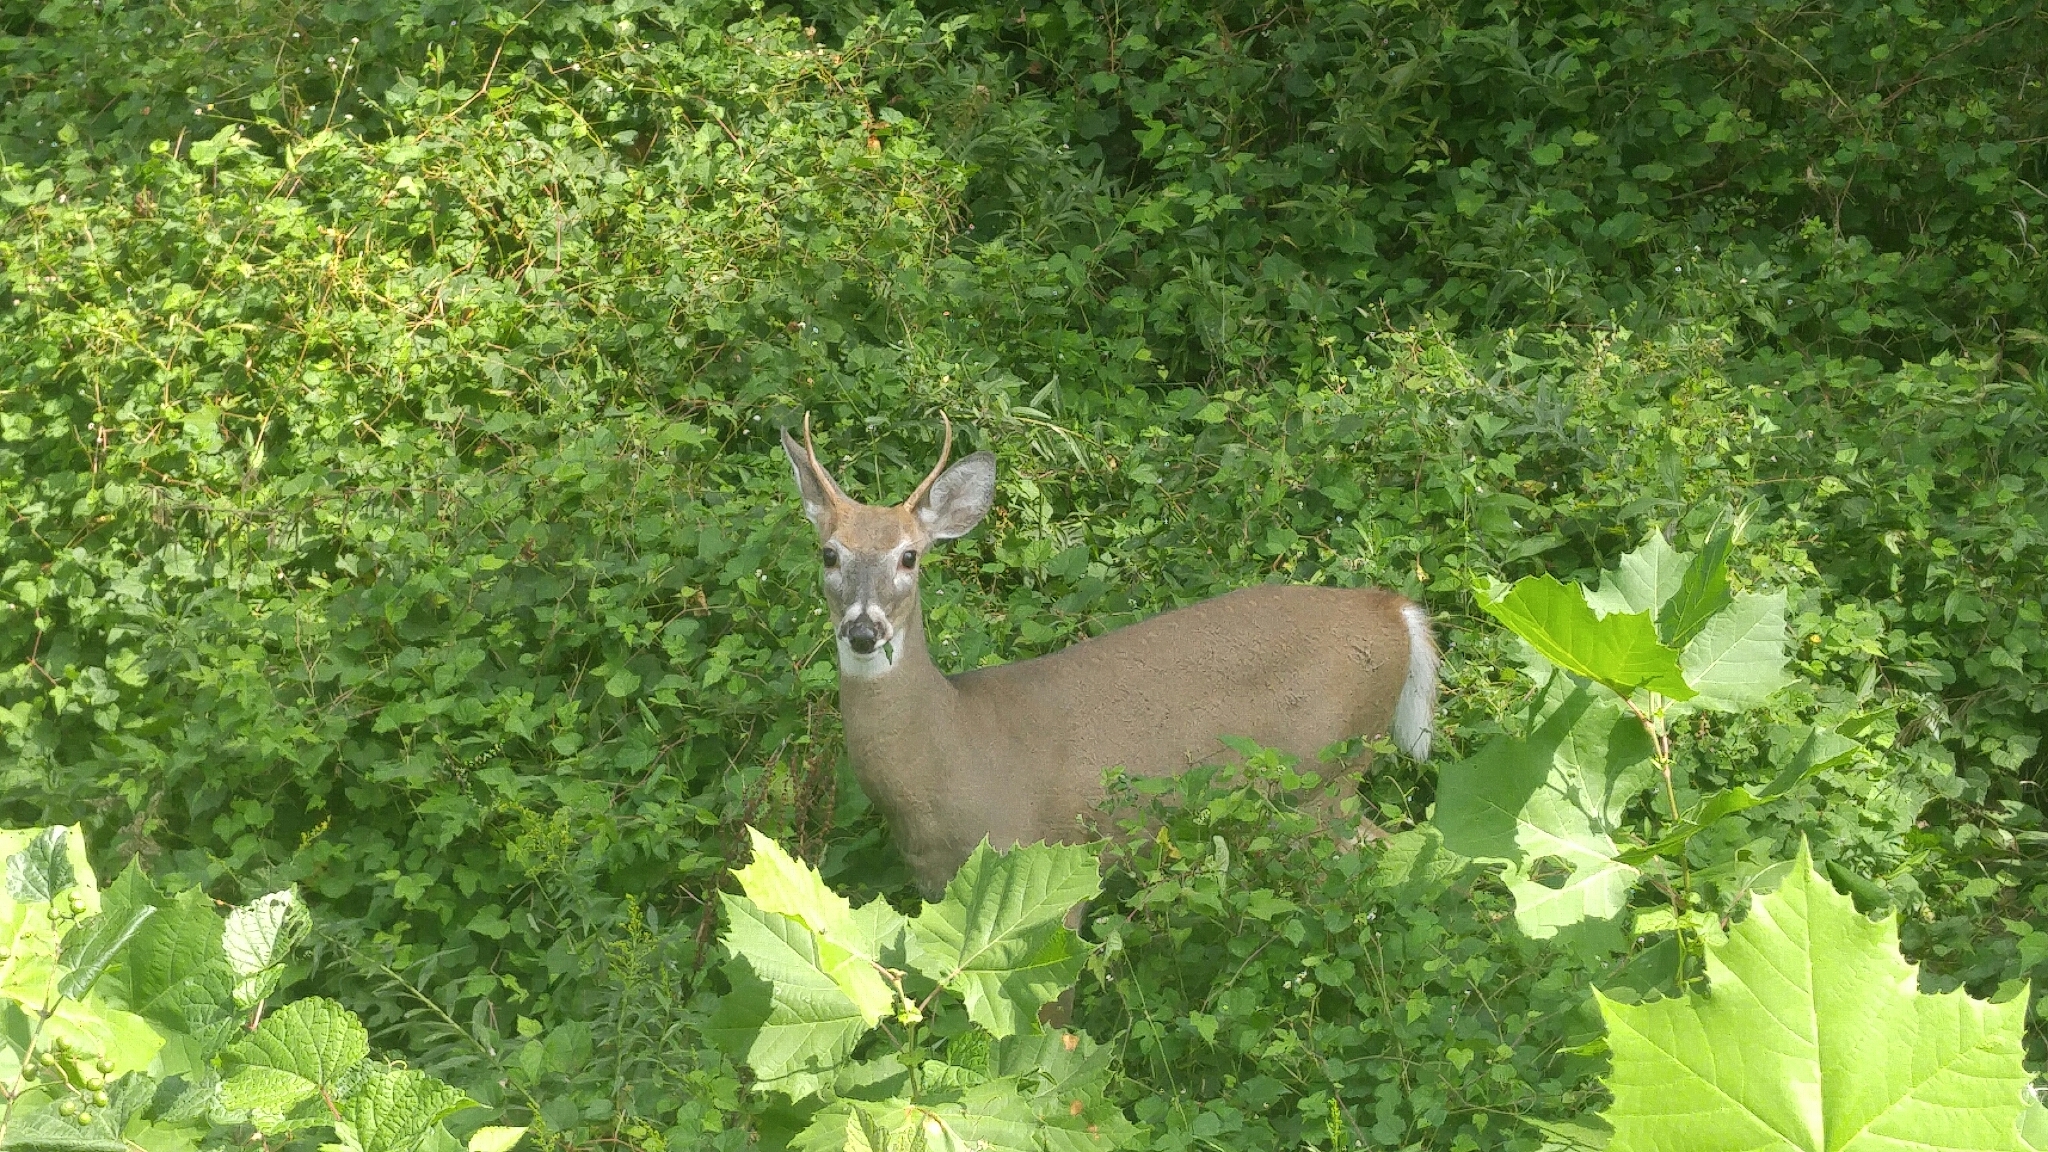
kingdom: Animalia
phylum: Chordata
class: Mammalia
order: Artiodactyla
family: Cervidae
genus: Odocoileus
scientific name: Odocoileus virginianus
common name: White-tailed deer
